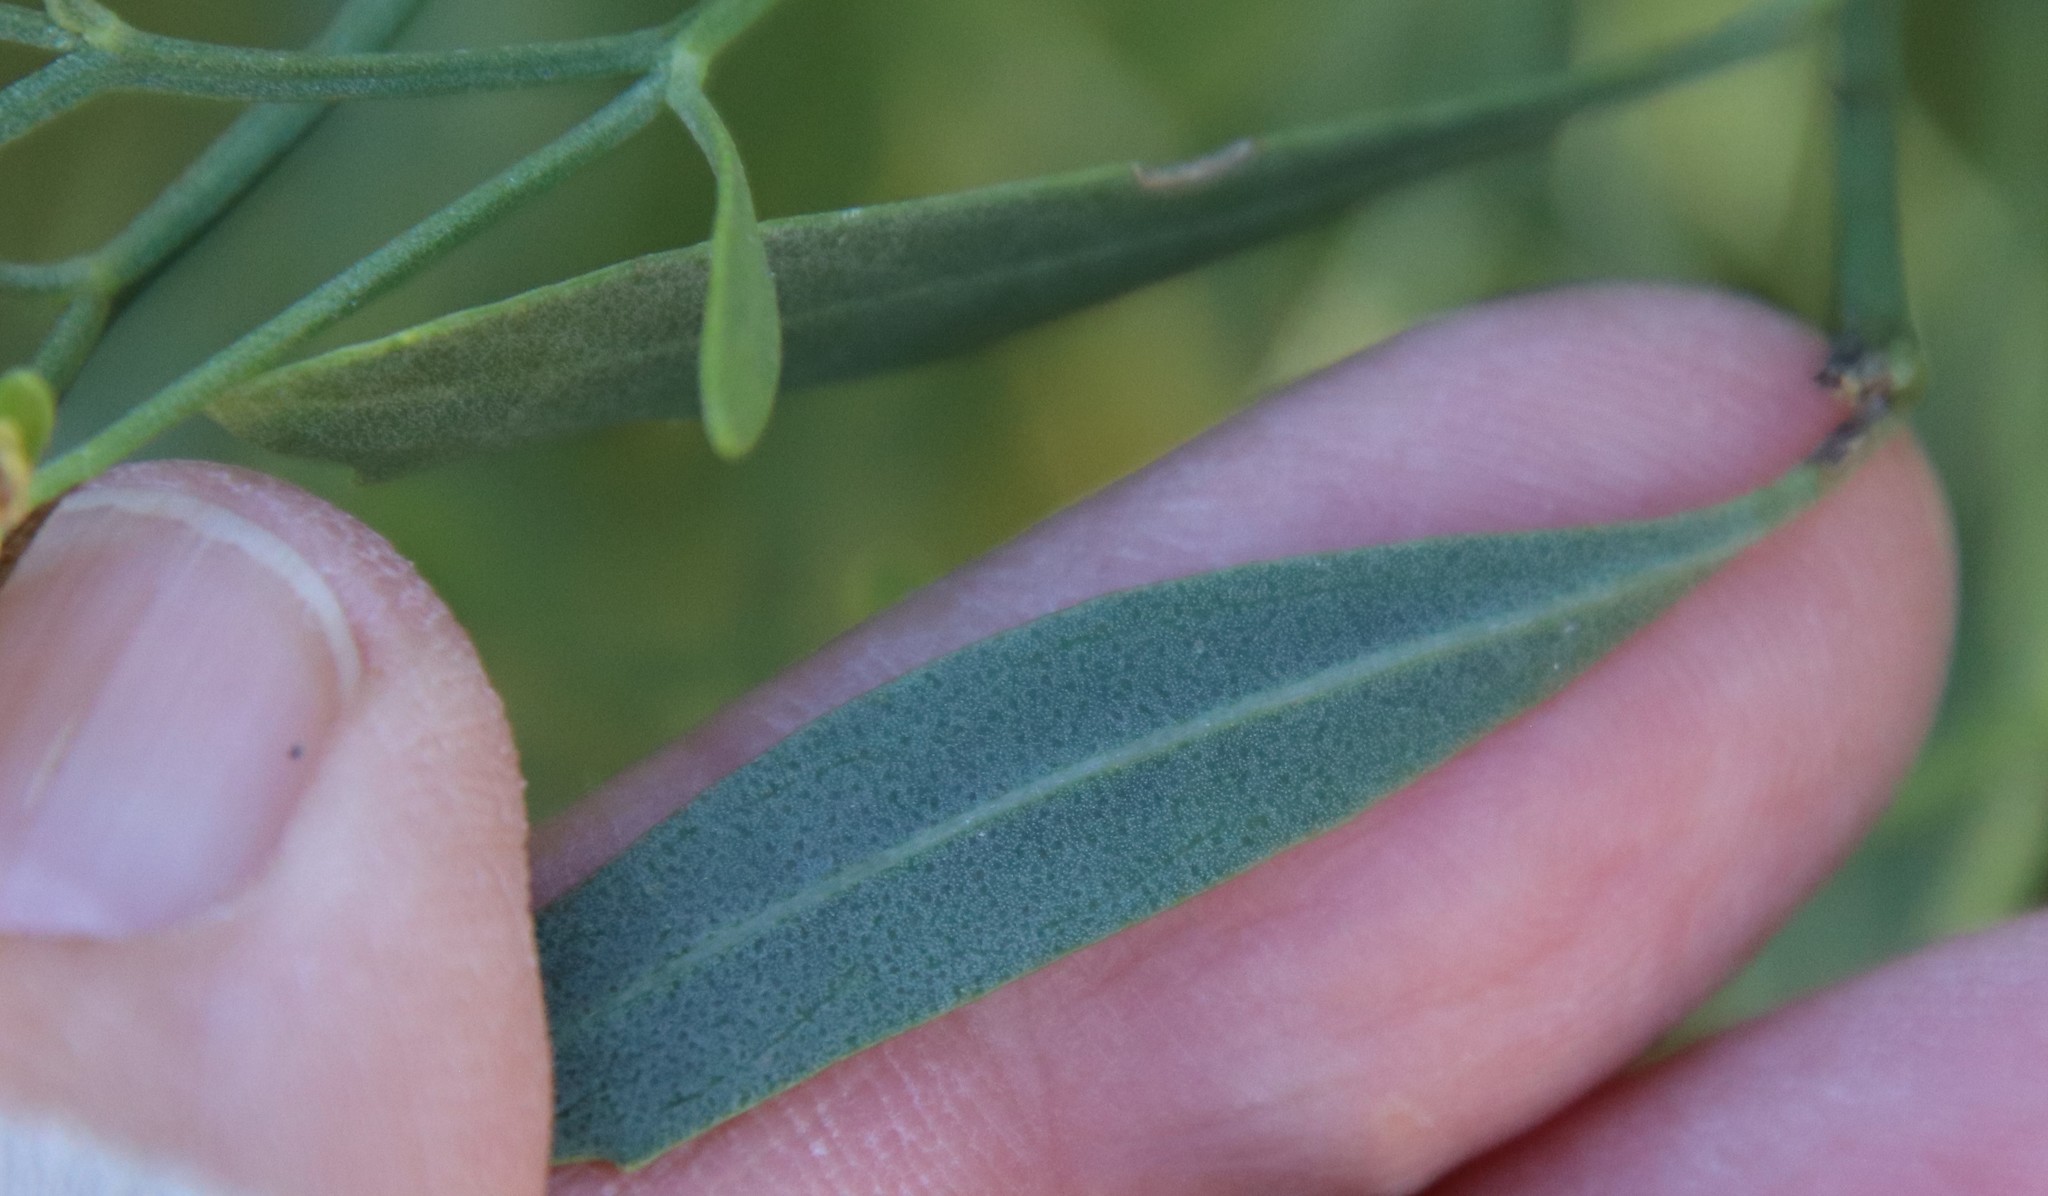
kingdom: Plantae
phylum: Tracheophyta
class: Magnoliopsida
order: Asterales
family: Asteraceae
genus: Baccharis
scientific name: Baccharis halimifolia
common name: Eastern baccharis
